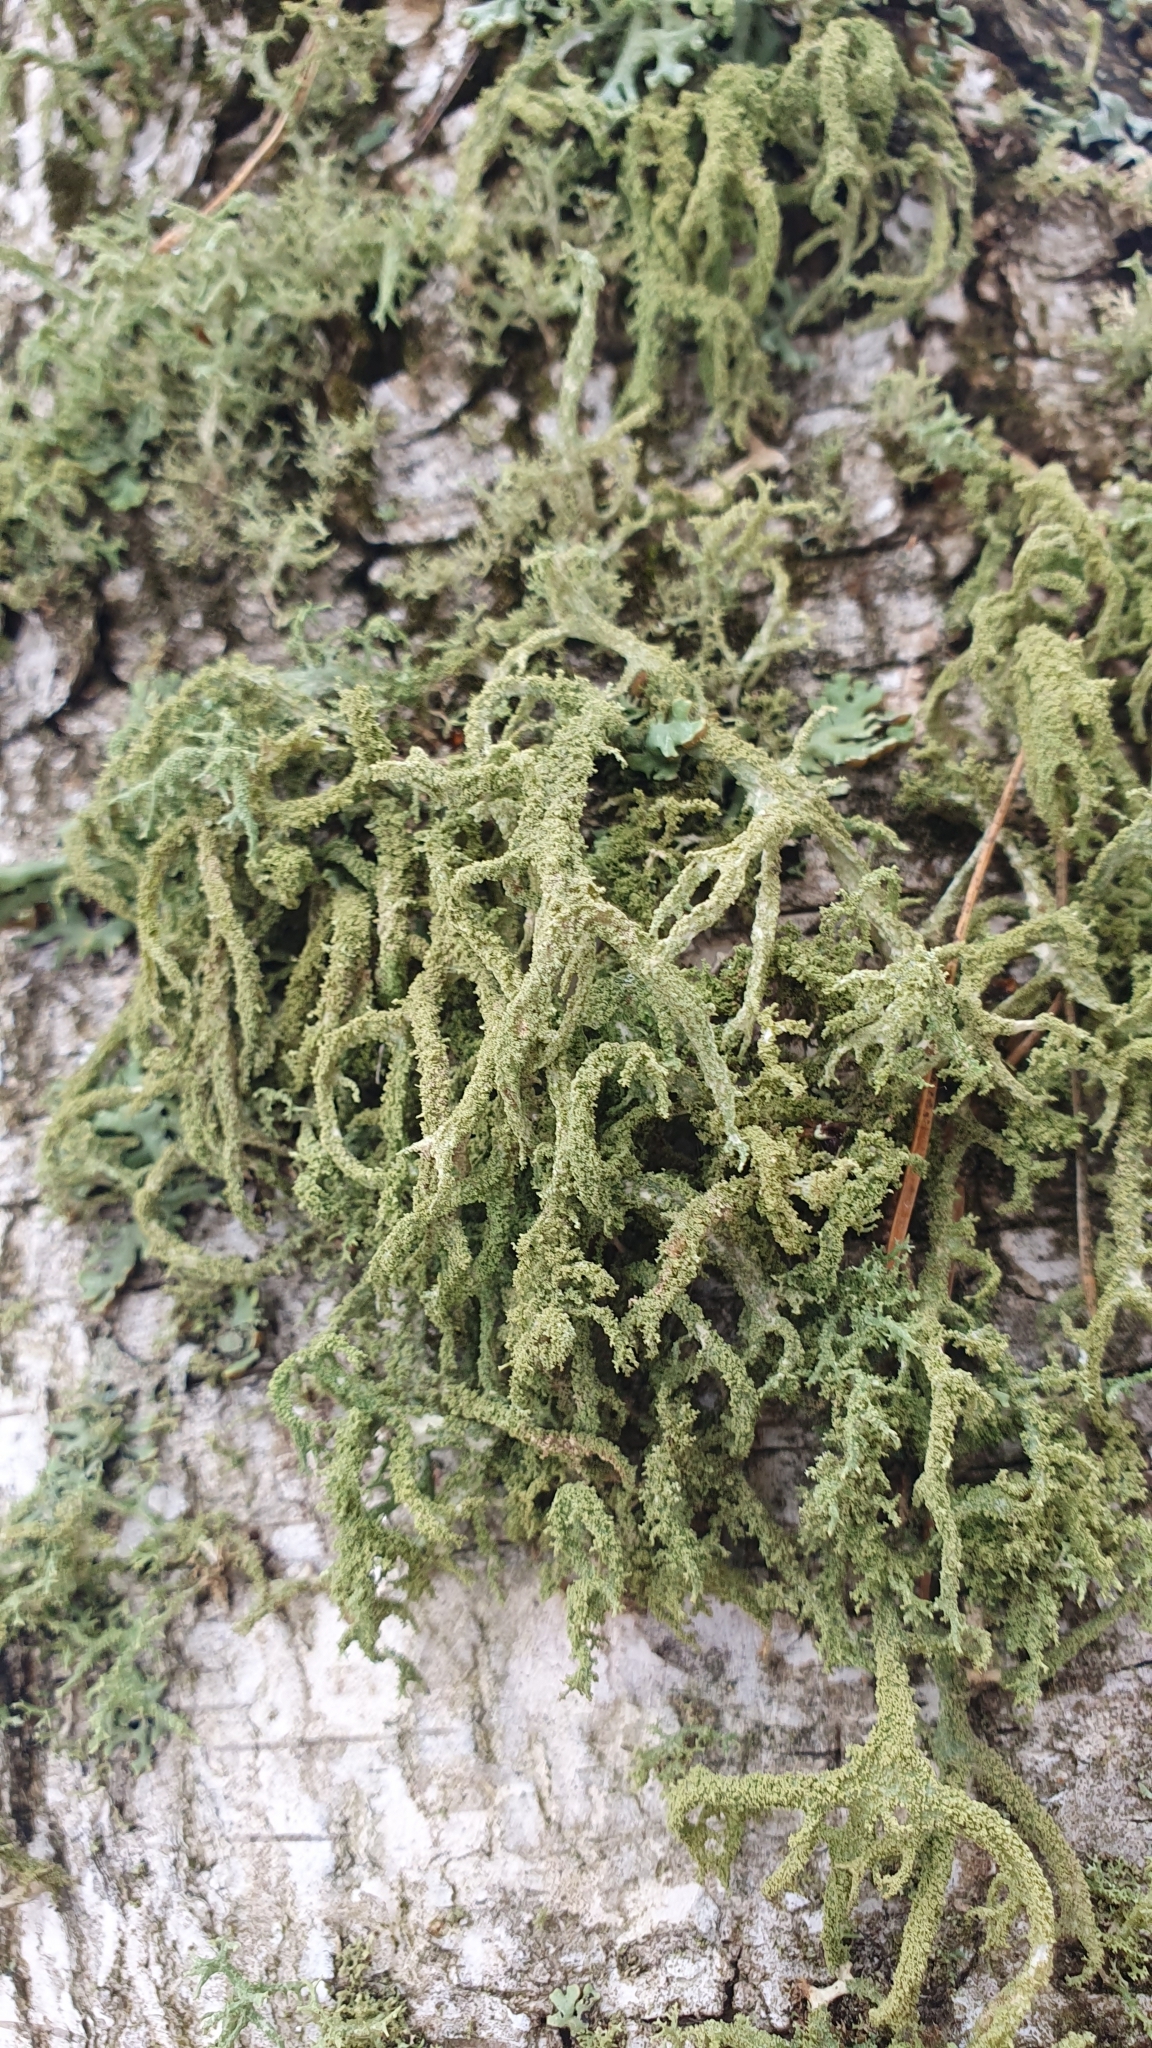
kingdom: Fungi
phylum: Ascomycota
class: Lecanoromycetes
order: Lecanorales
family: Parmeliaceae
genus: Evernia
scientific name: Evernia mesomorpha
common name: Boreal oak moss lichen
